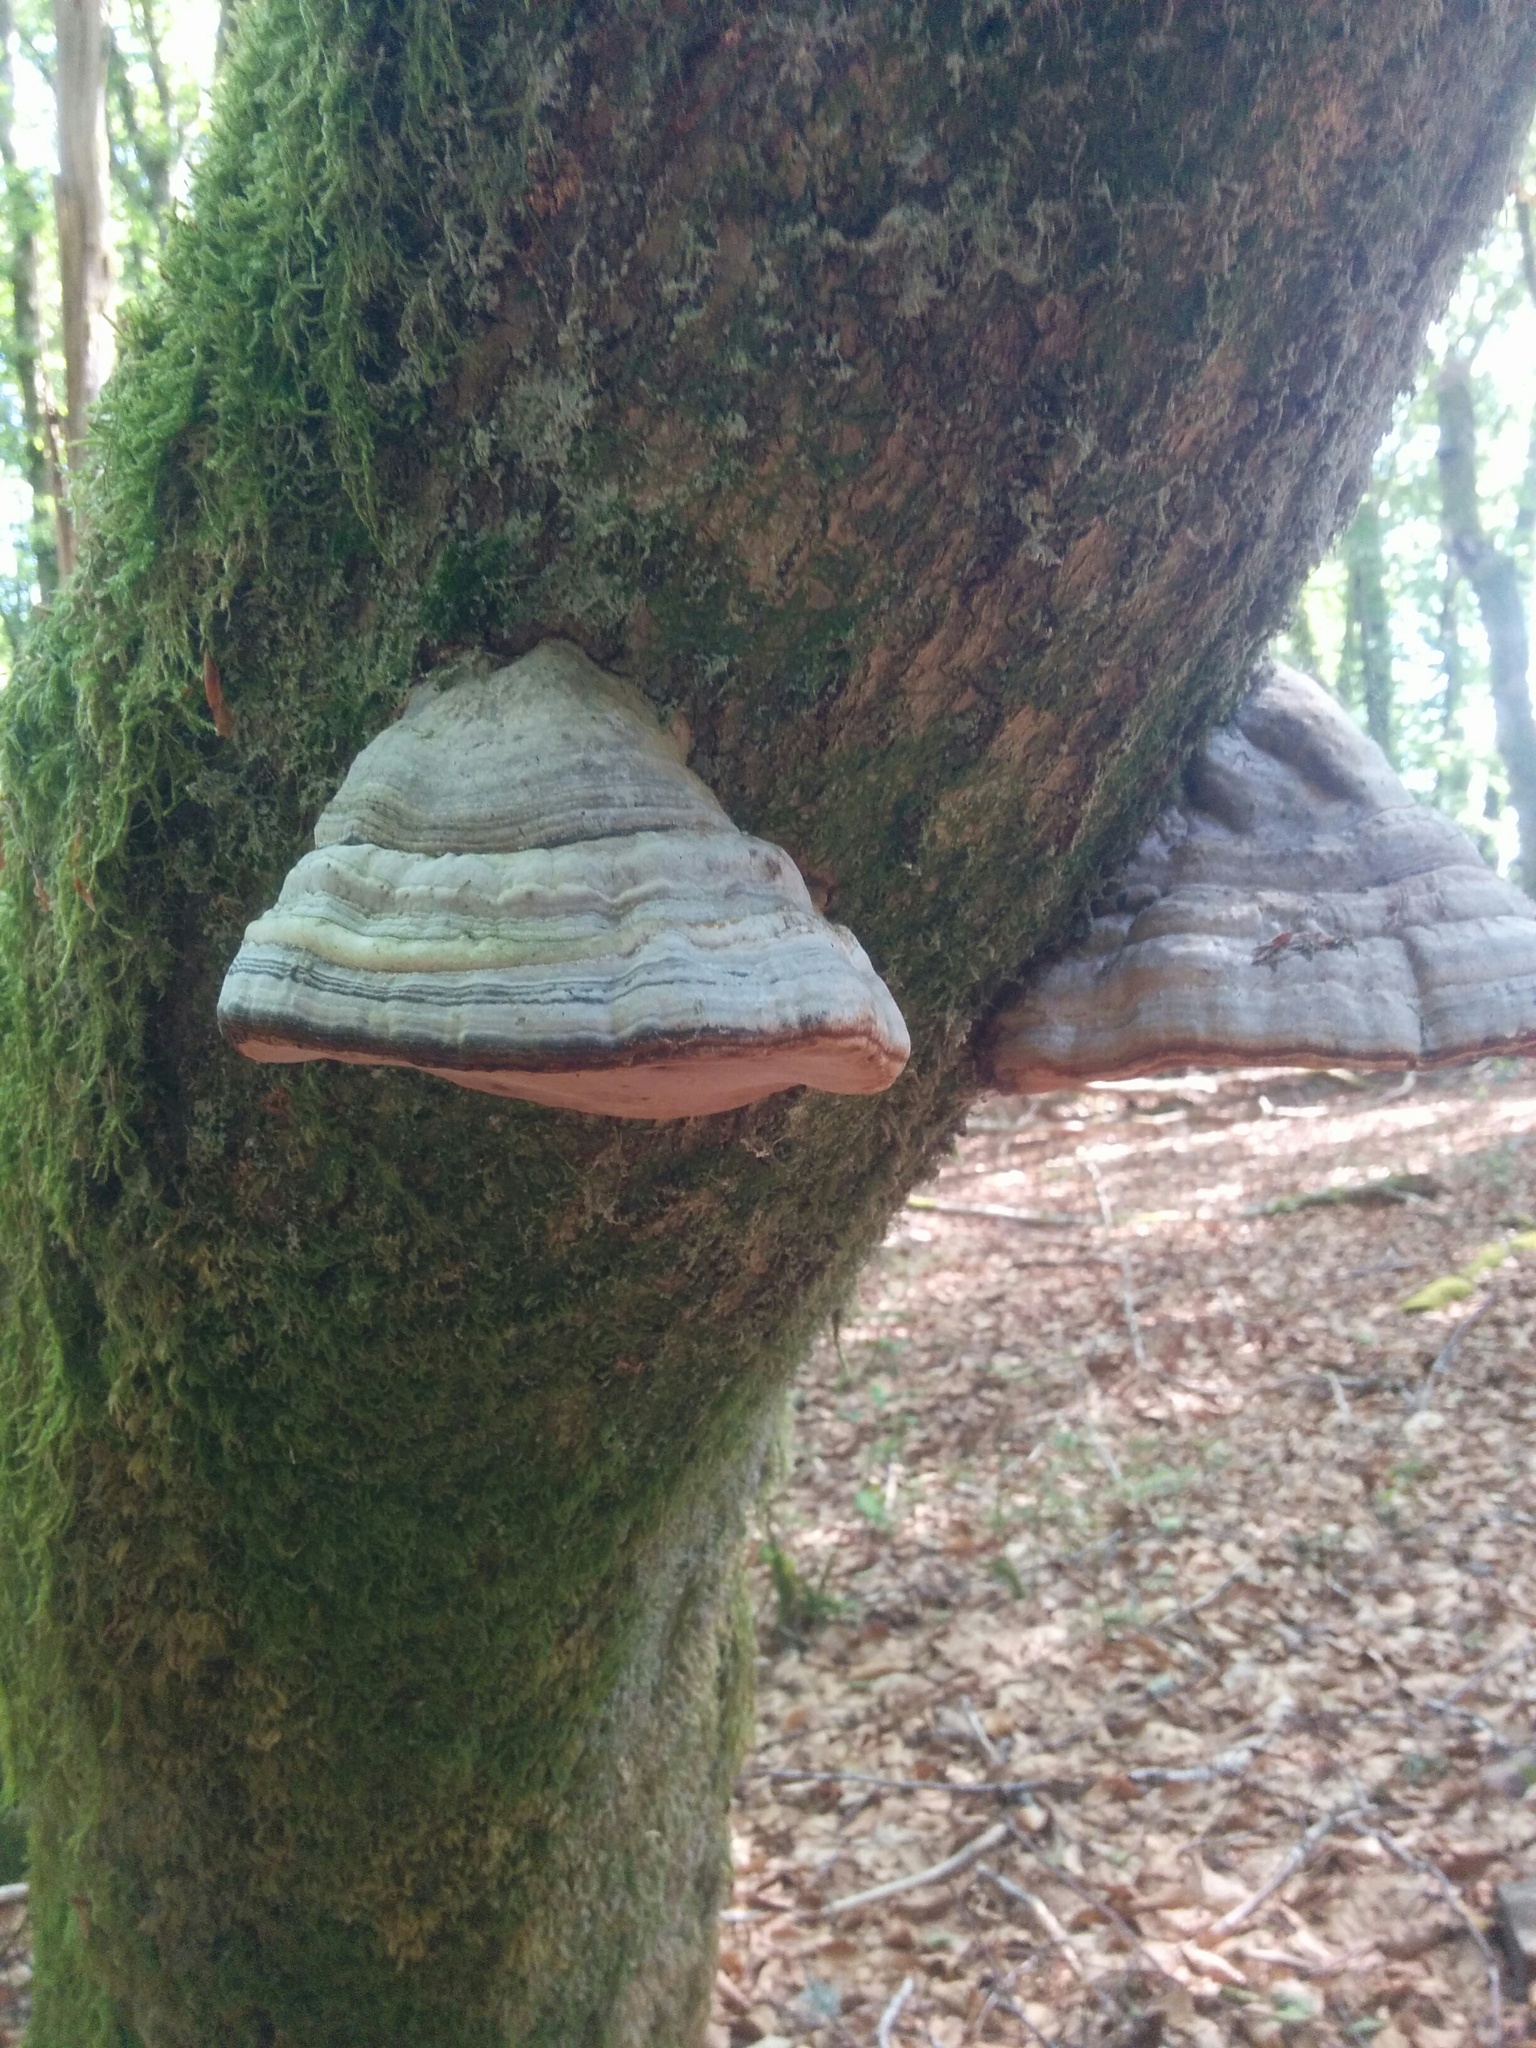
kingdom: Fungi
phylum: Basidiomycota
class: Agaricomycetes
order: Polyporales
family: Polyporaceae
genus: Fomes
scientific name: Fomes fomentarius
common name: Hoof fungus
